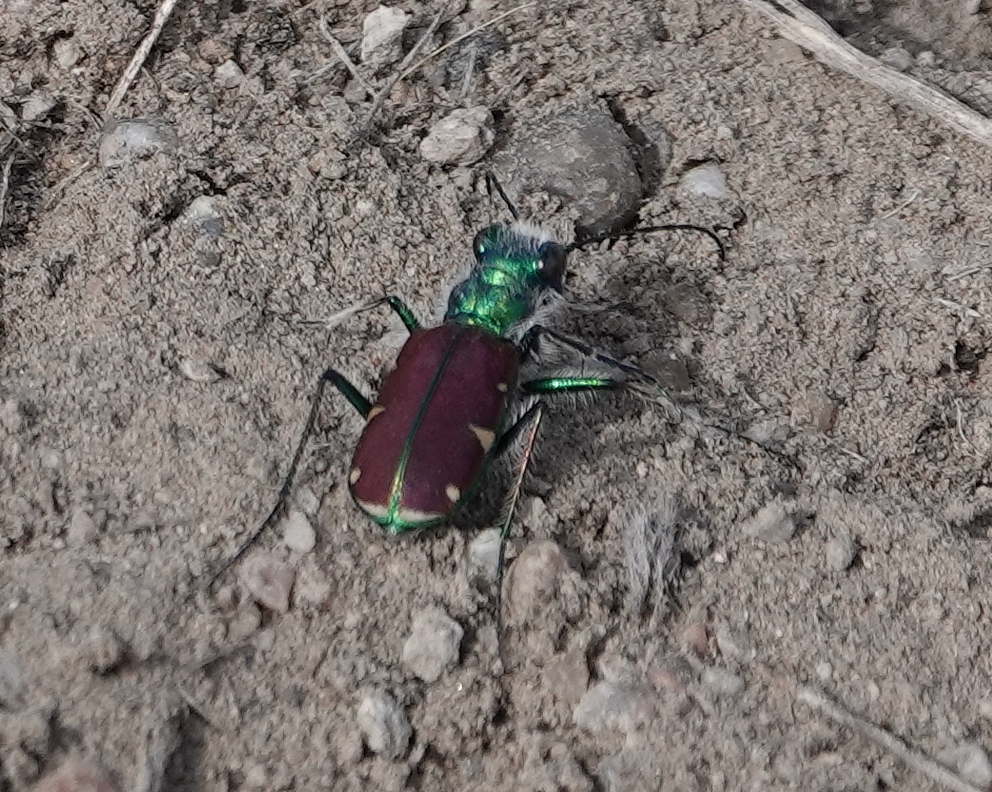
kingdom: Animalia
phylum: Arthropoda
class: Insecta
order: Coleoptera
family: Carabidae
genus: Cicindela
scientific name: Cicindela splendida
